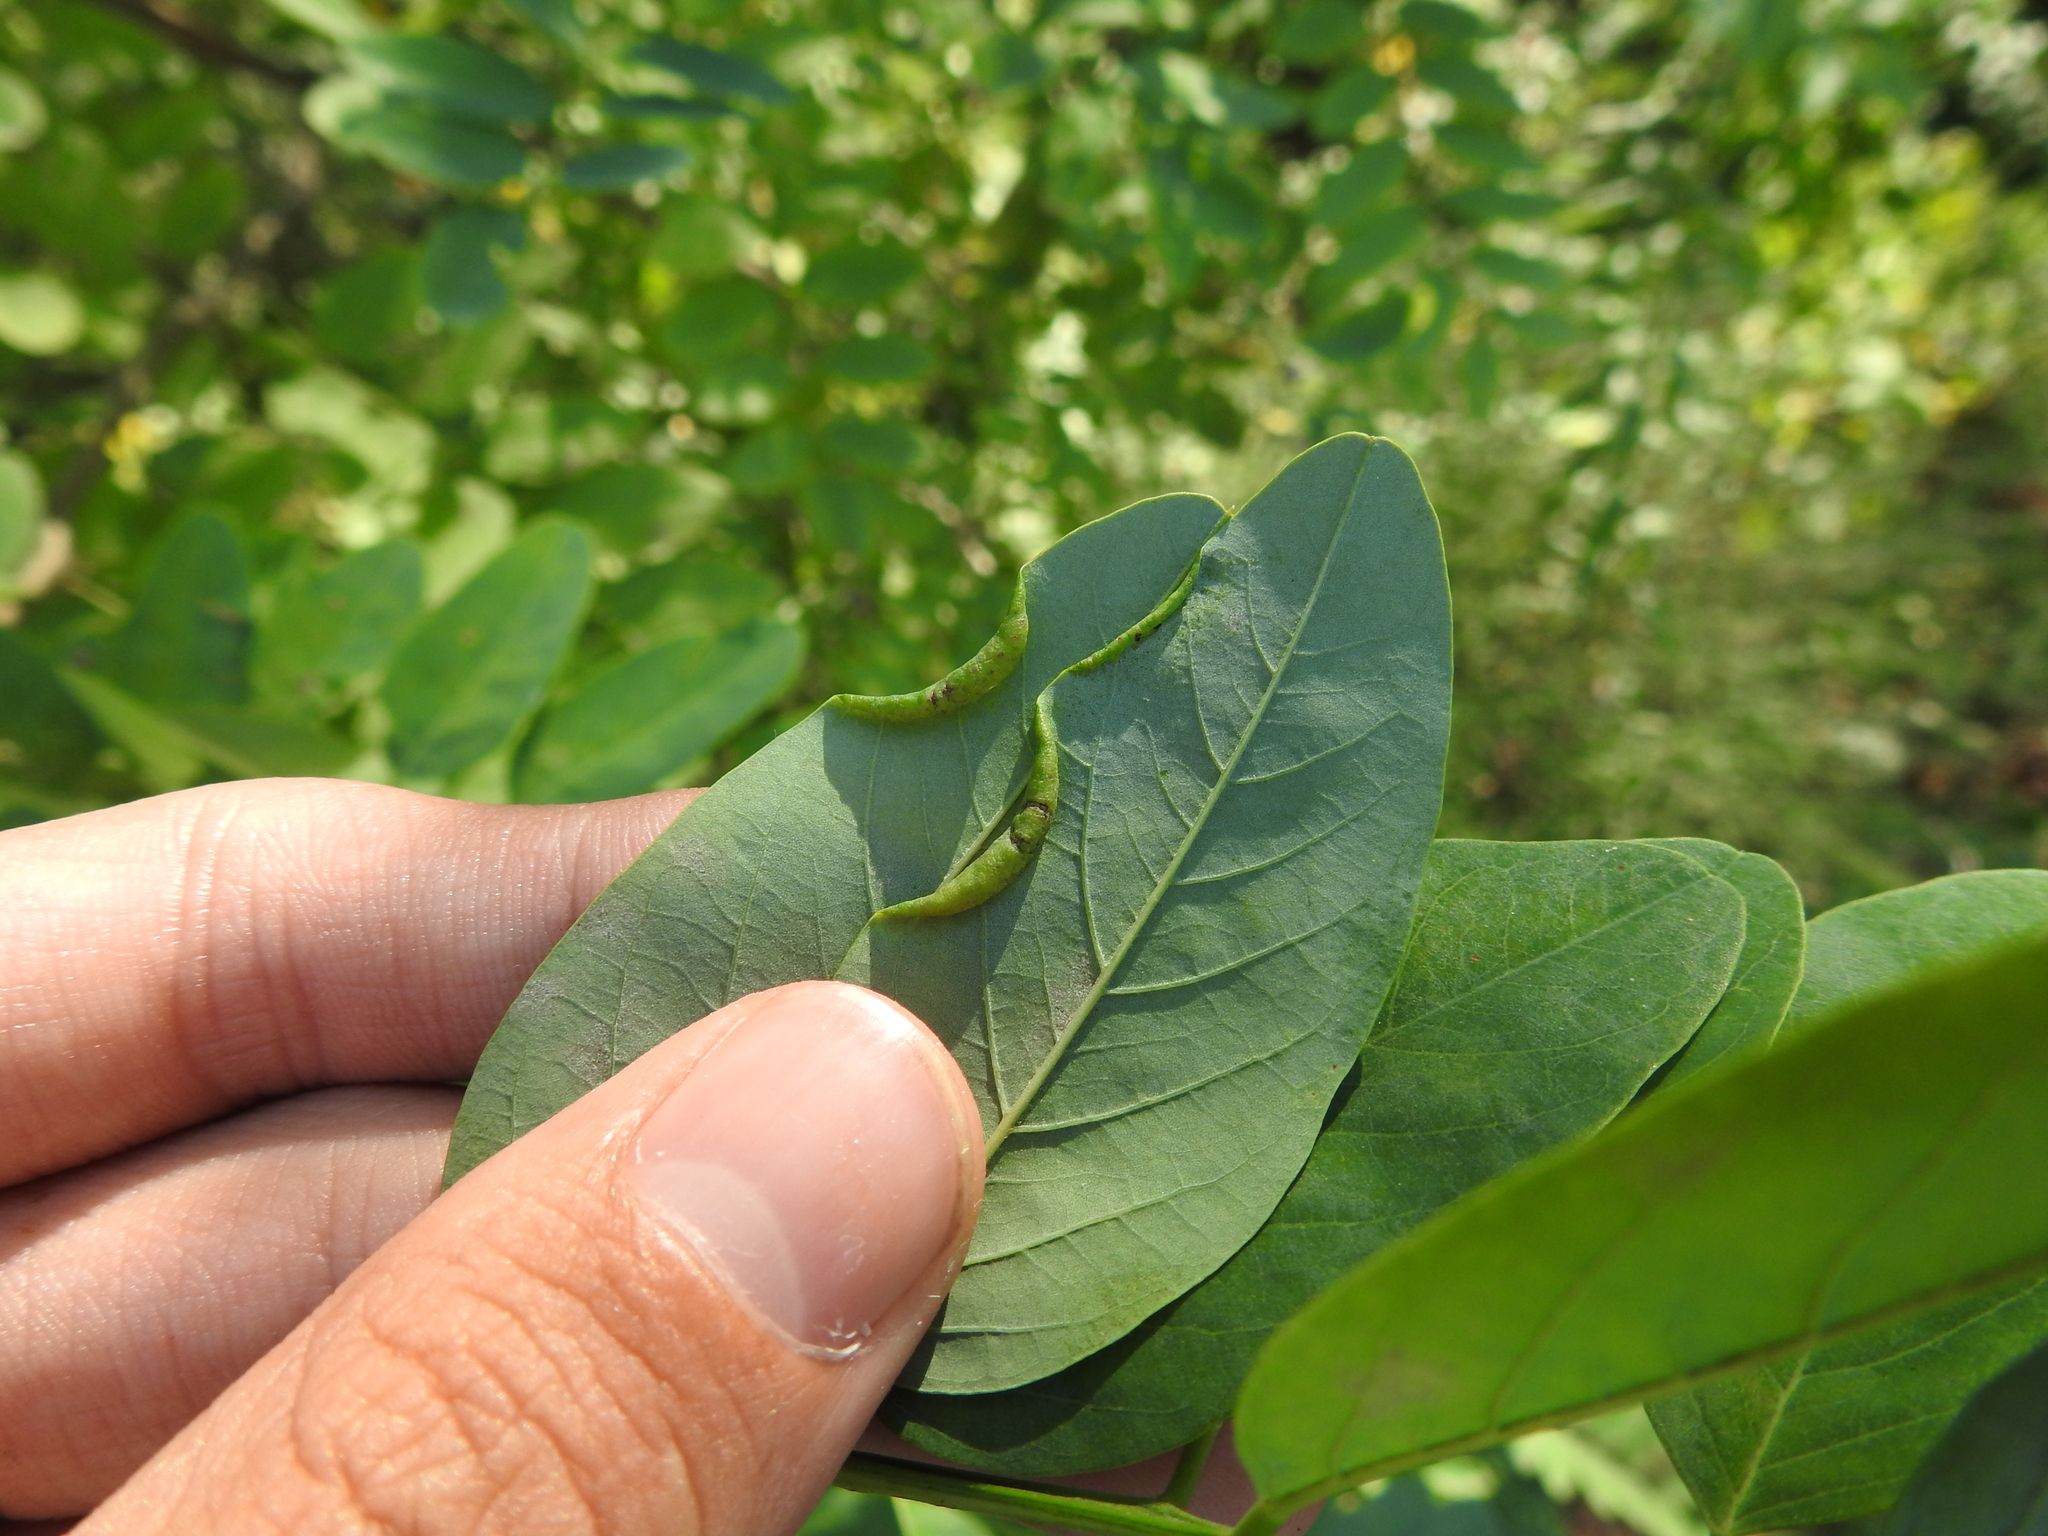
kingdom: Animalia
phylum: Arthropoda
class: Insecta
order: Diptera
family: Cecidomyiidae
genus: Obolodiplosis
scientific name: Obolodiplosis robiniae
